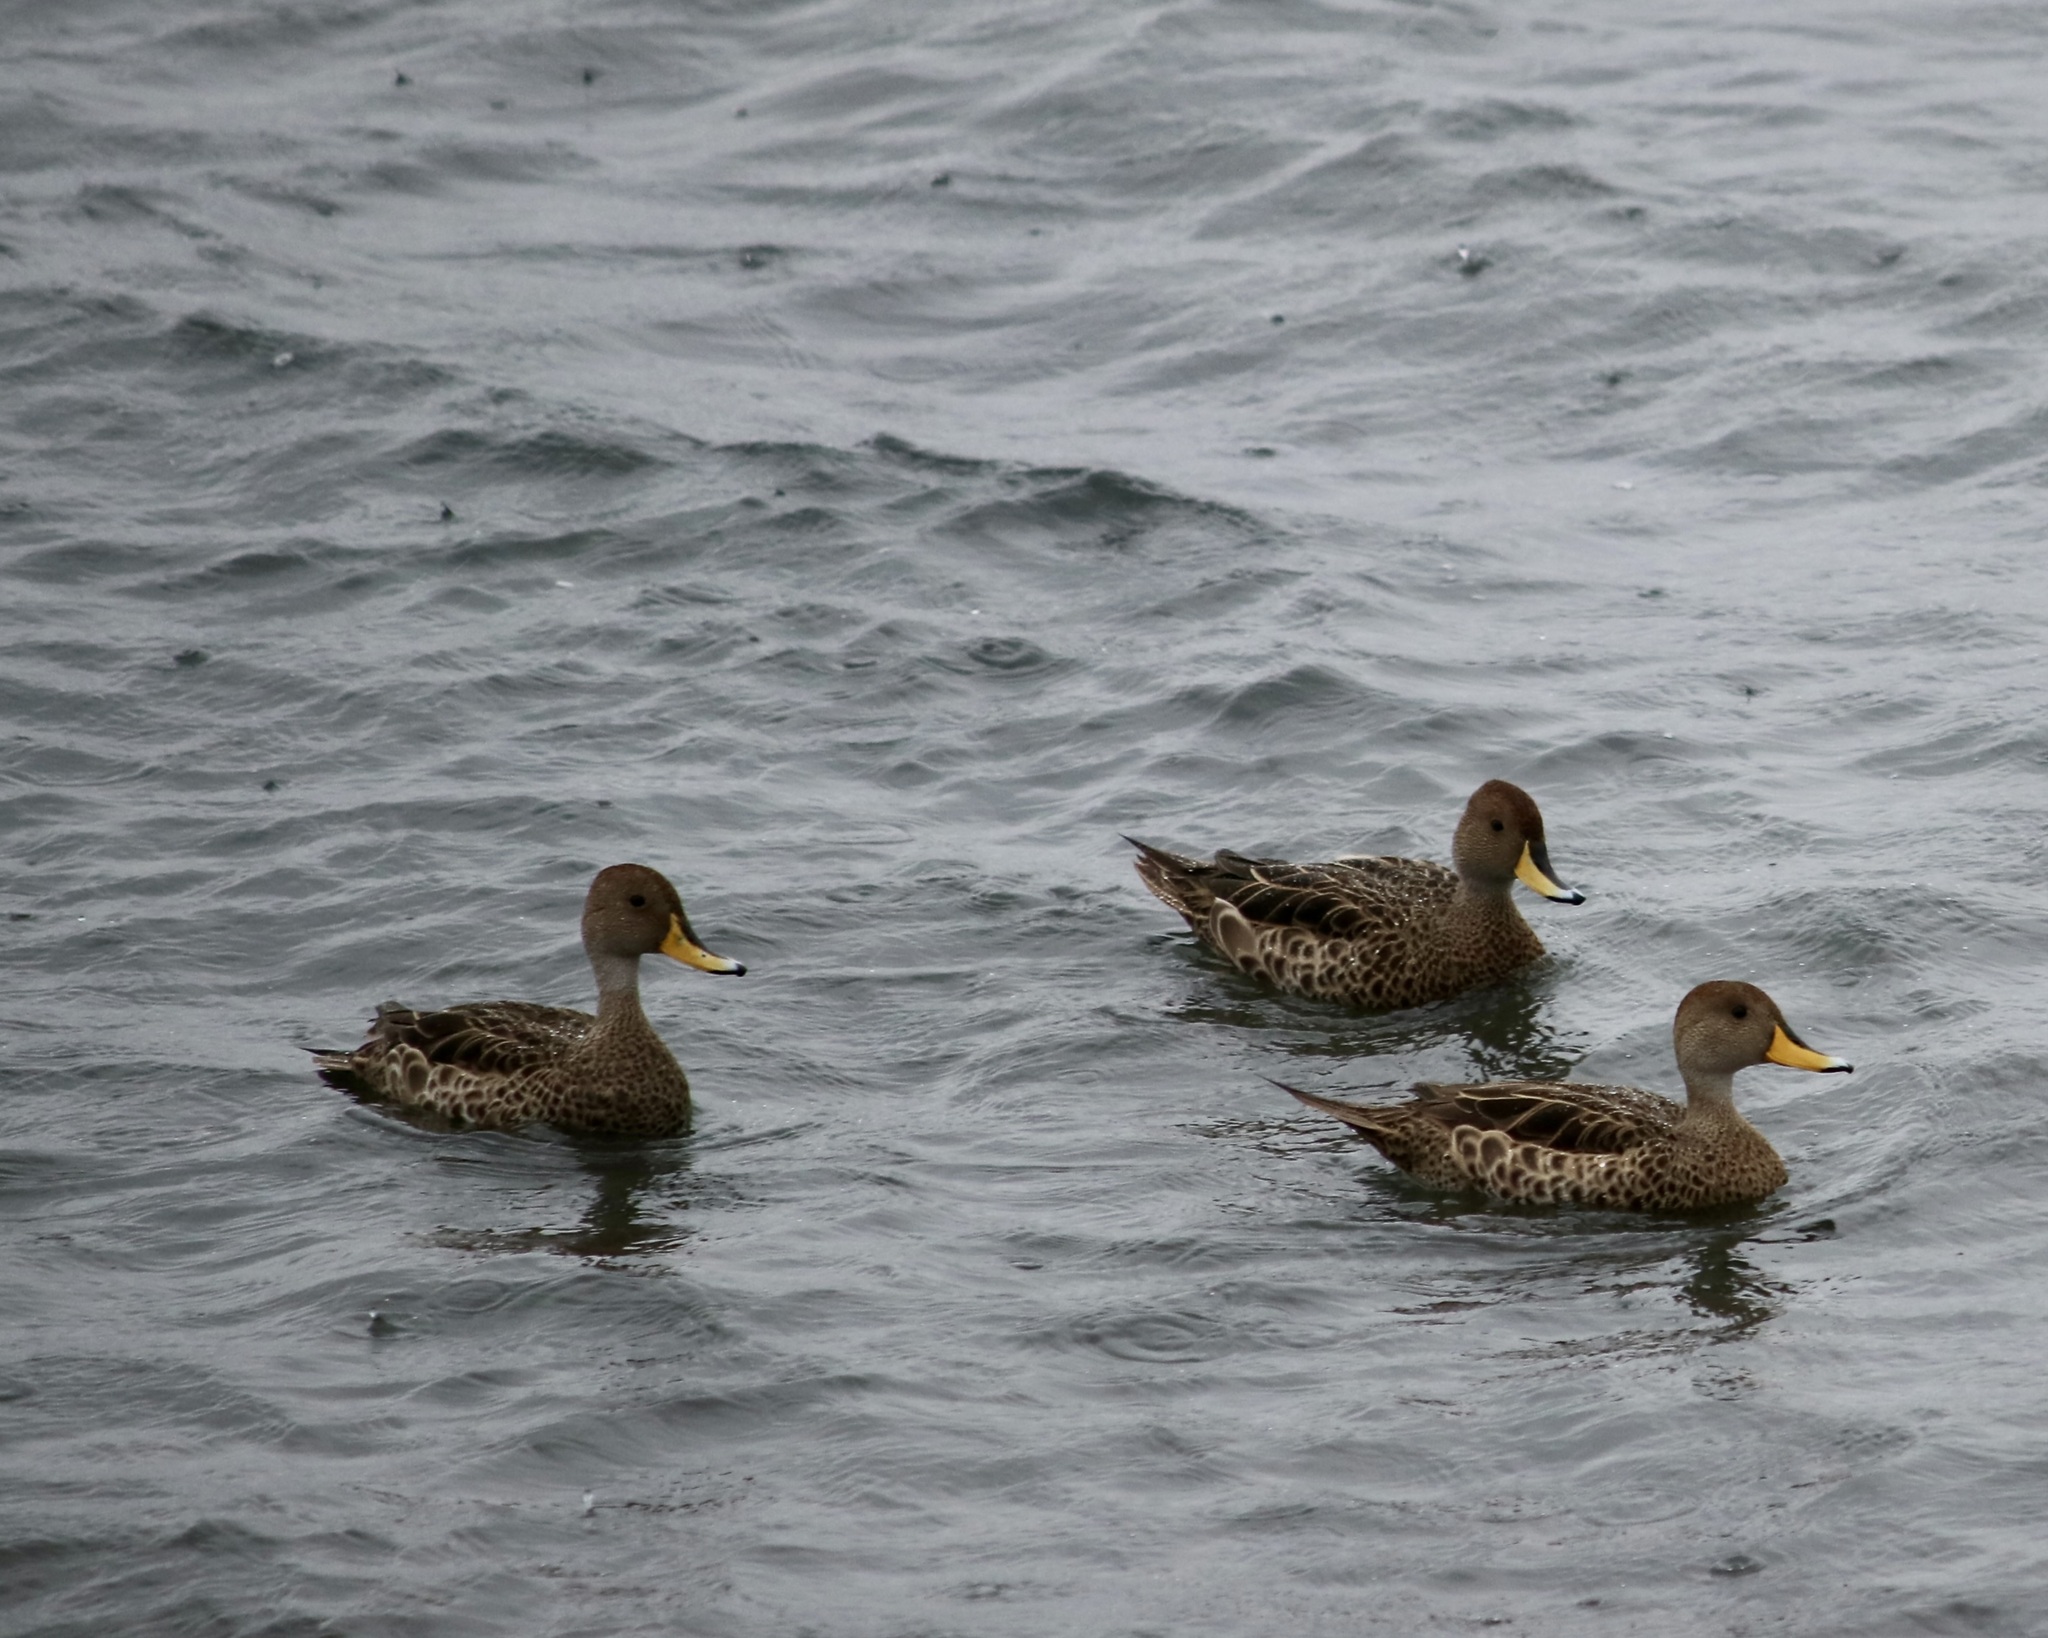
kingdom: Animalia
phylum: Chordata
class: Aves
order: Anseriformes
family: Anatidae
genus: Anas
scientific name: Anas georgica
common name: Yellow-billed pintail
